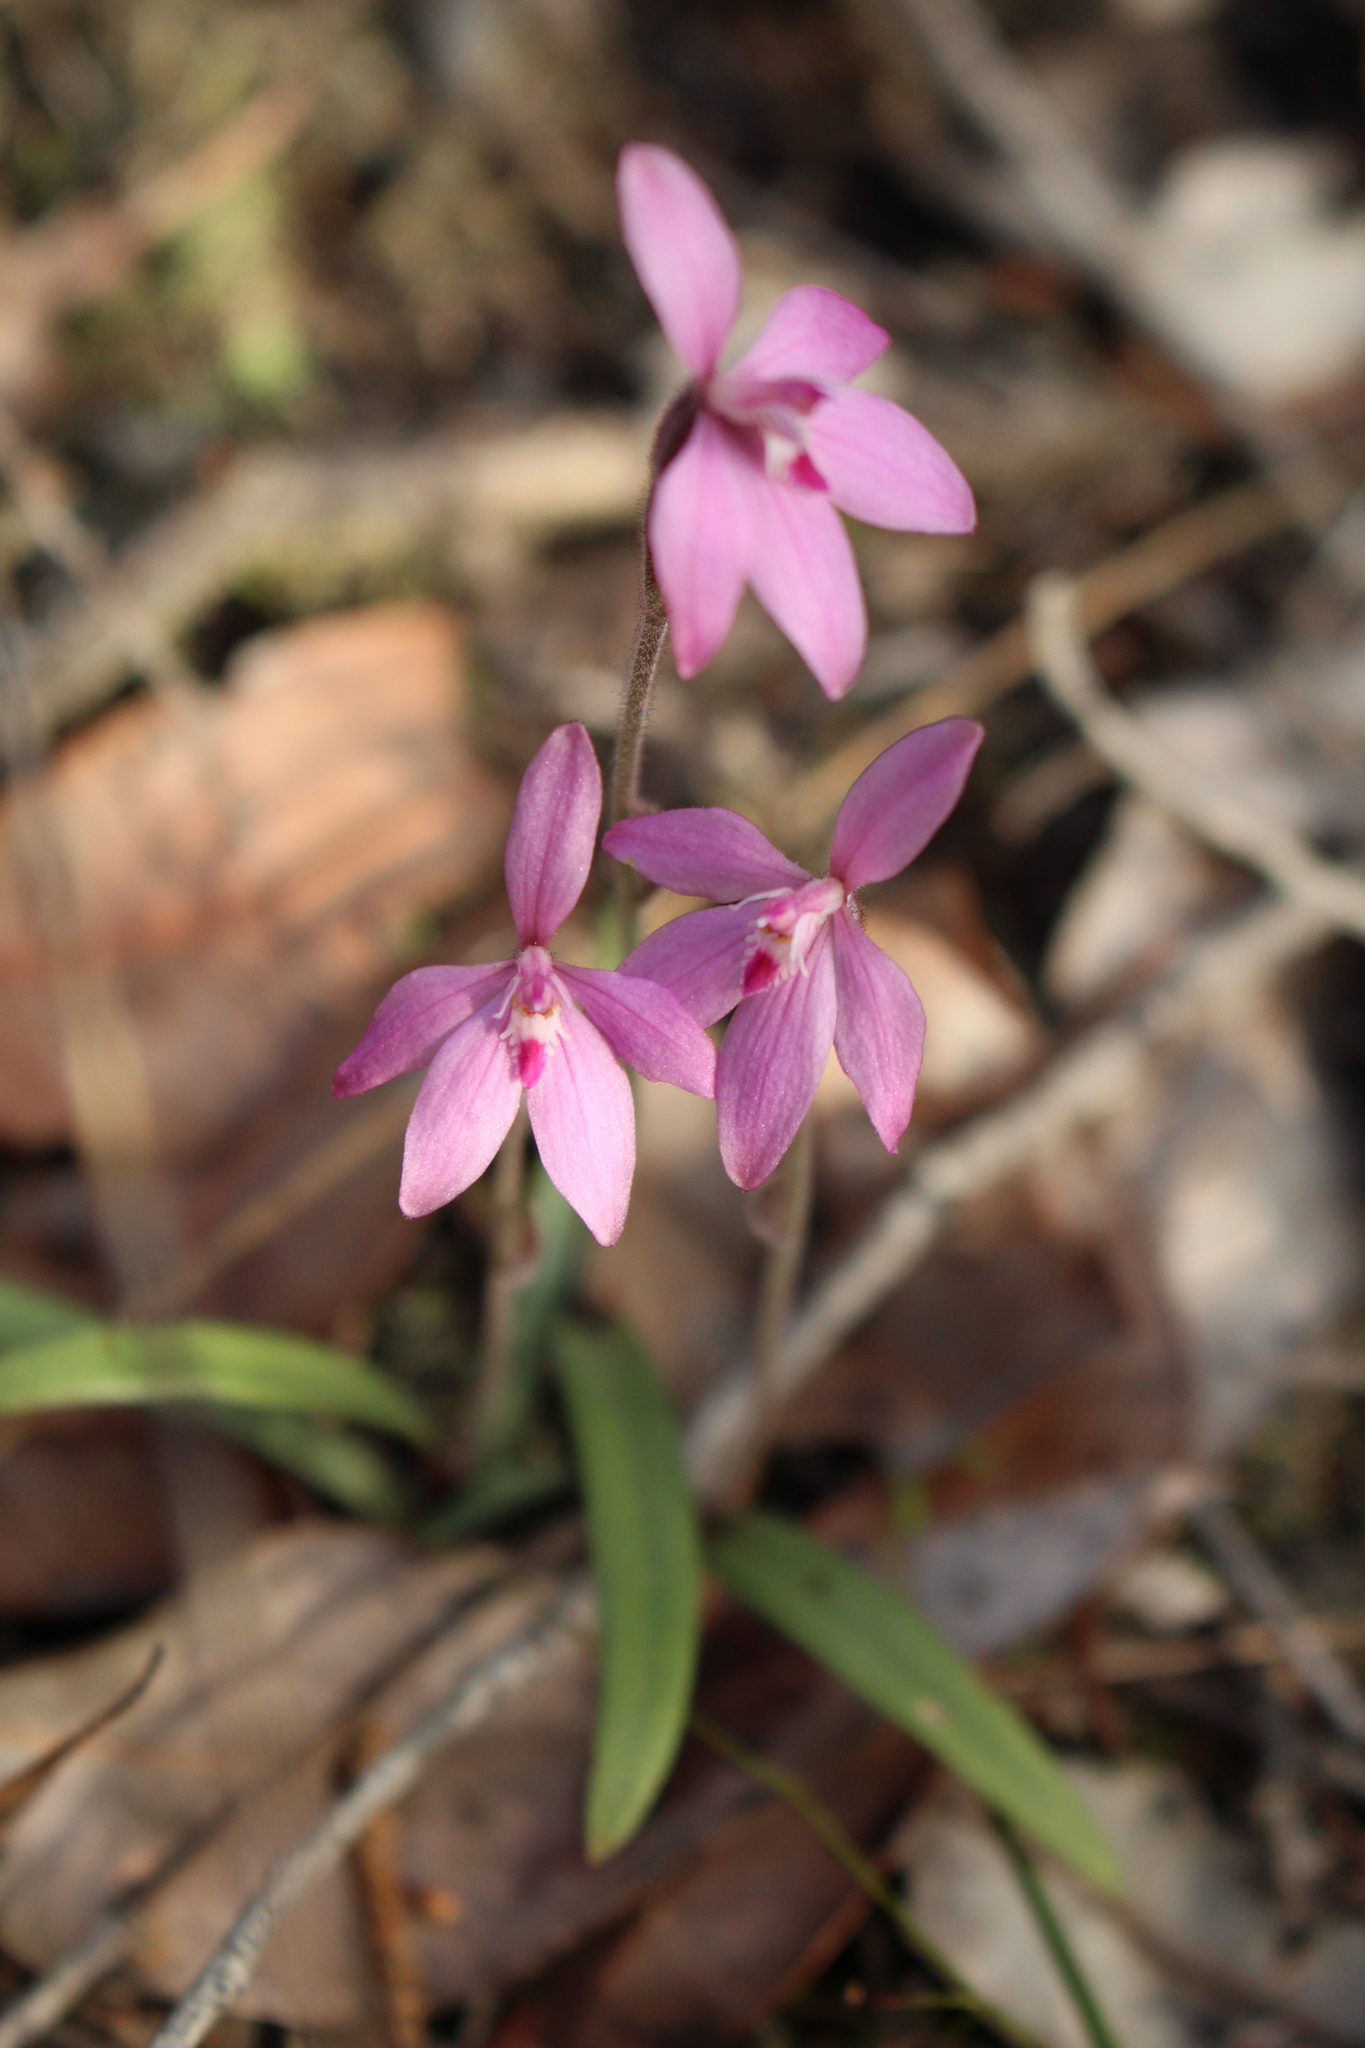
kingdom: Plantae
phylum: Tracheophyta
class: Liliopsida
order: Asparagales
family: Orchidaceae
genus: Caladenia
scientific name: Caladenia reptans
